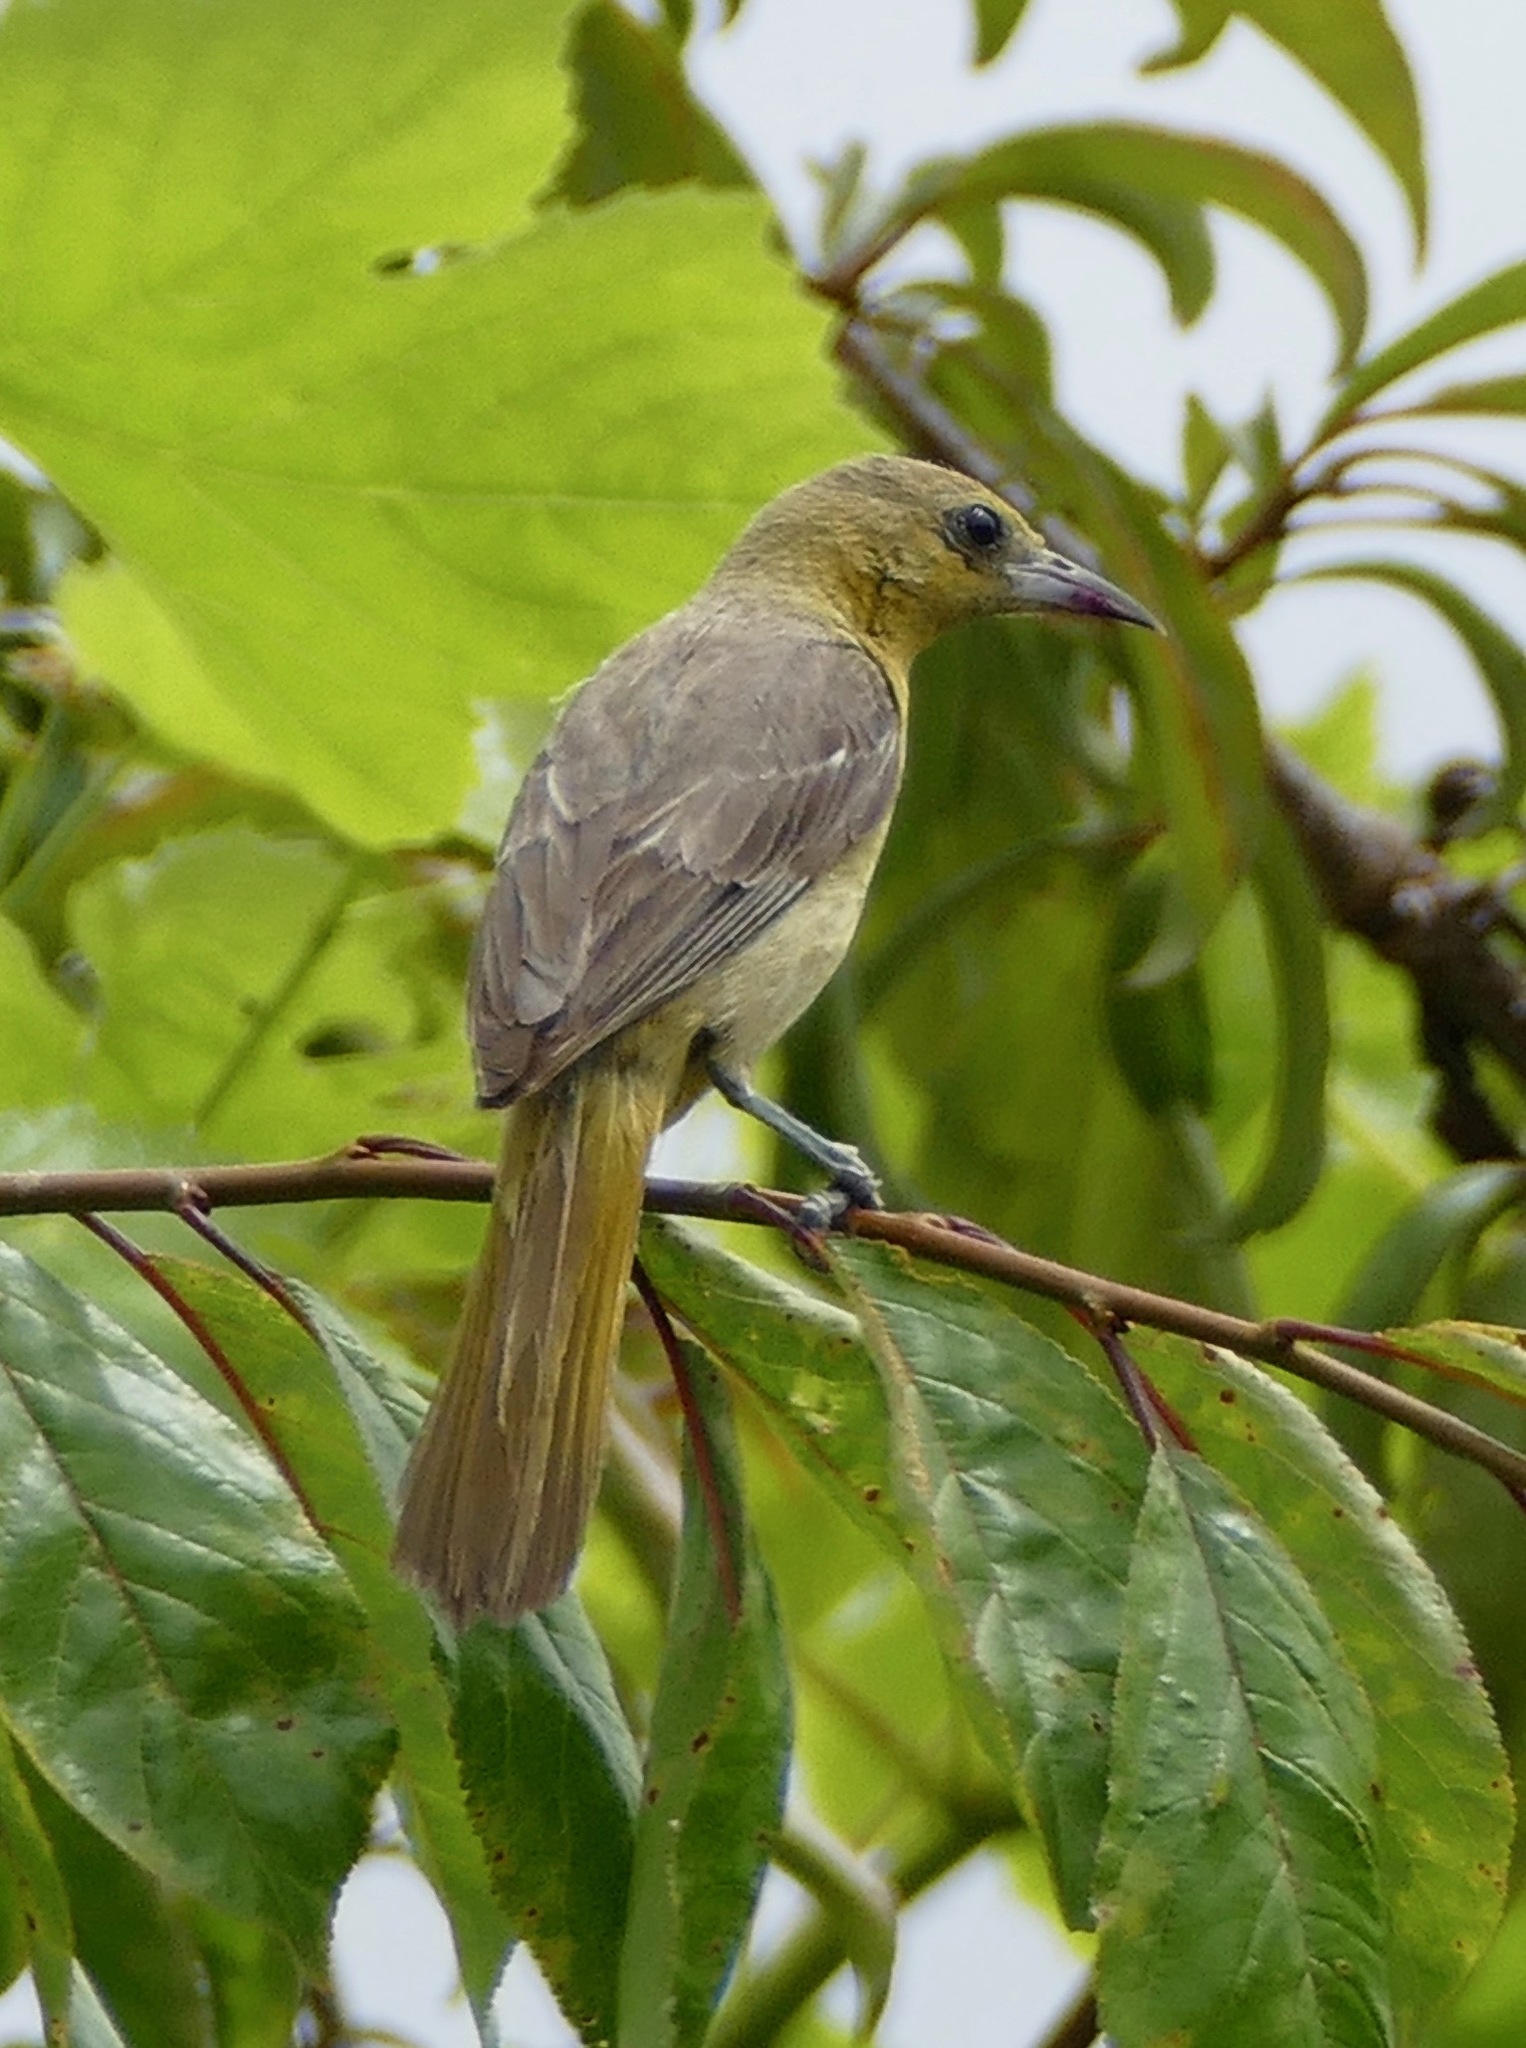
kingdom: Animalia
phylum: Chordata
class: Aves
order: Passeriformes
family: Icteridae
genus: Icterus
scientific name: Icterus cucullatus
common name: Hooded oriole
